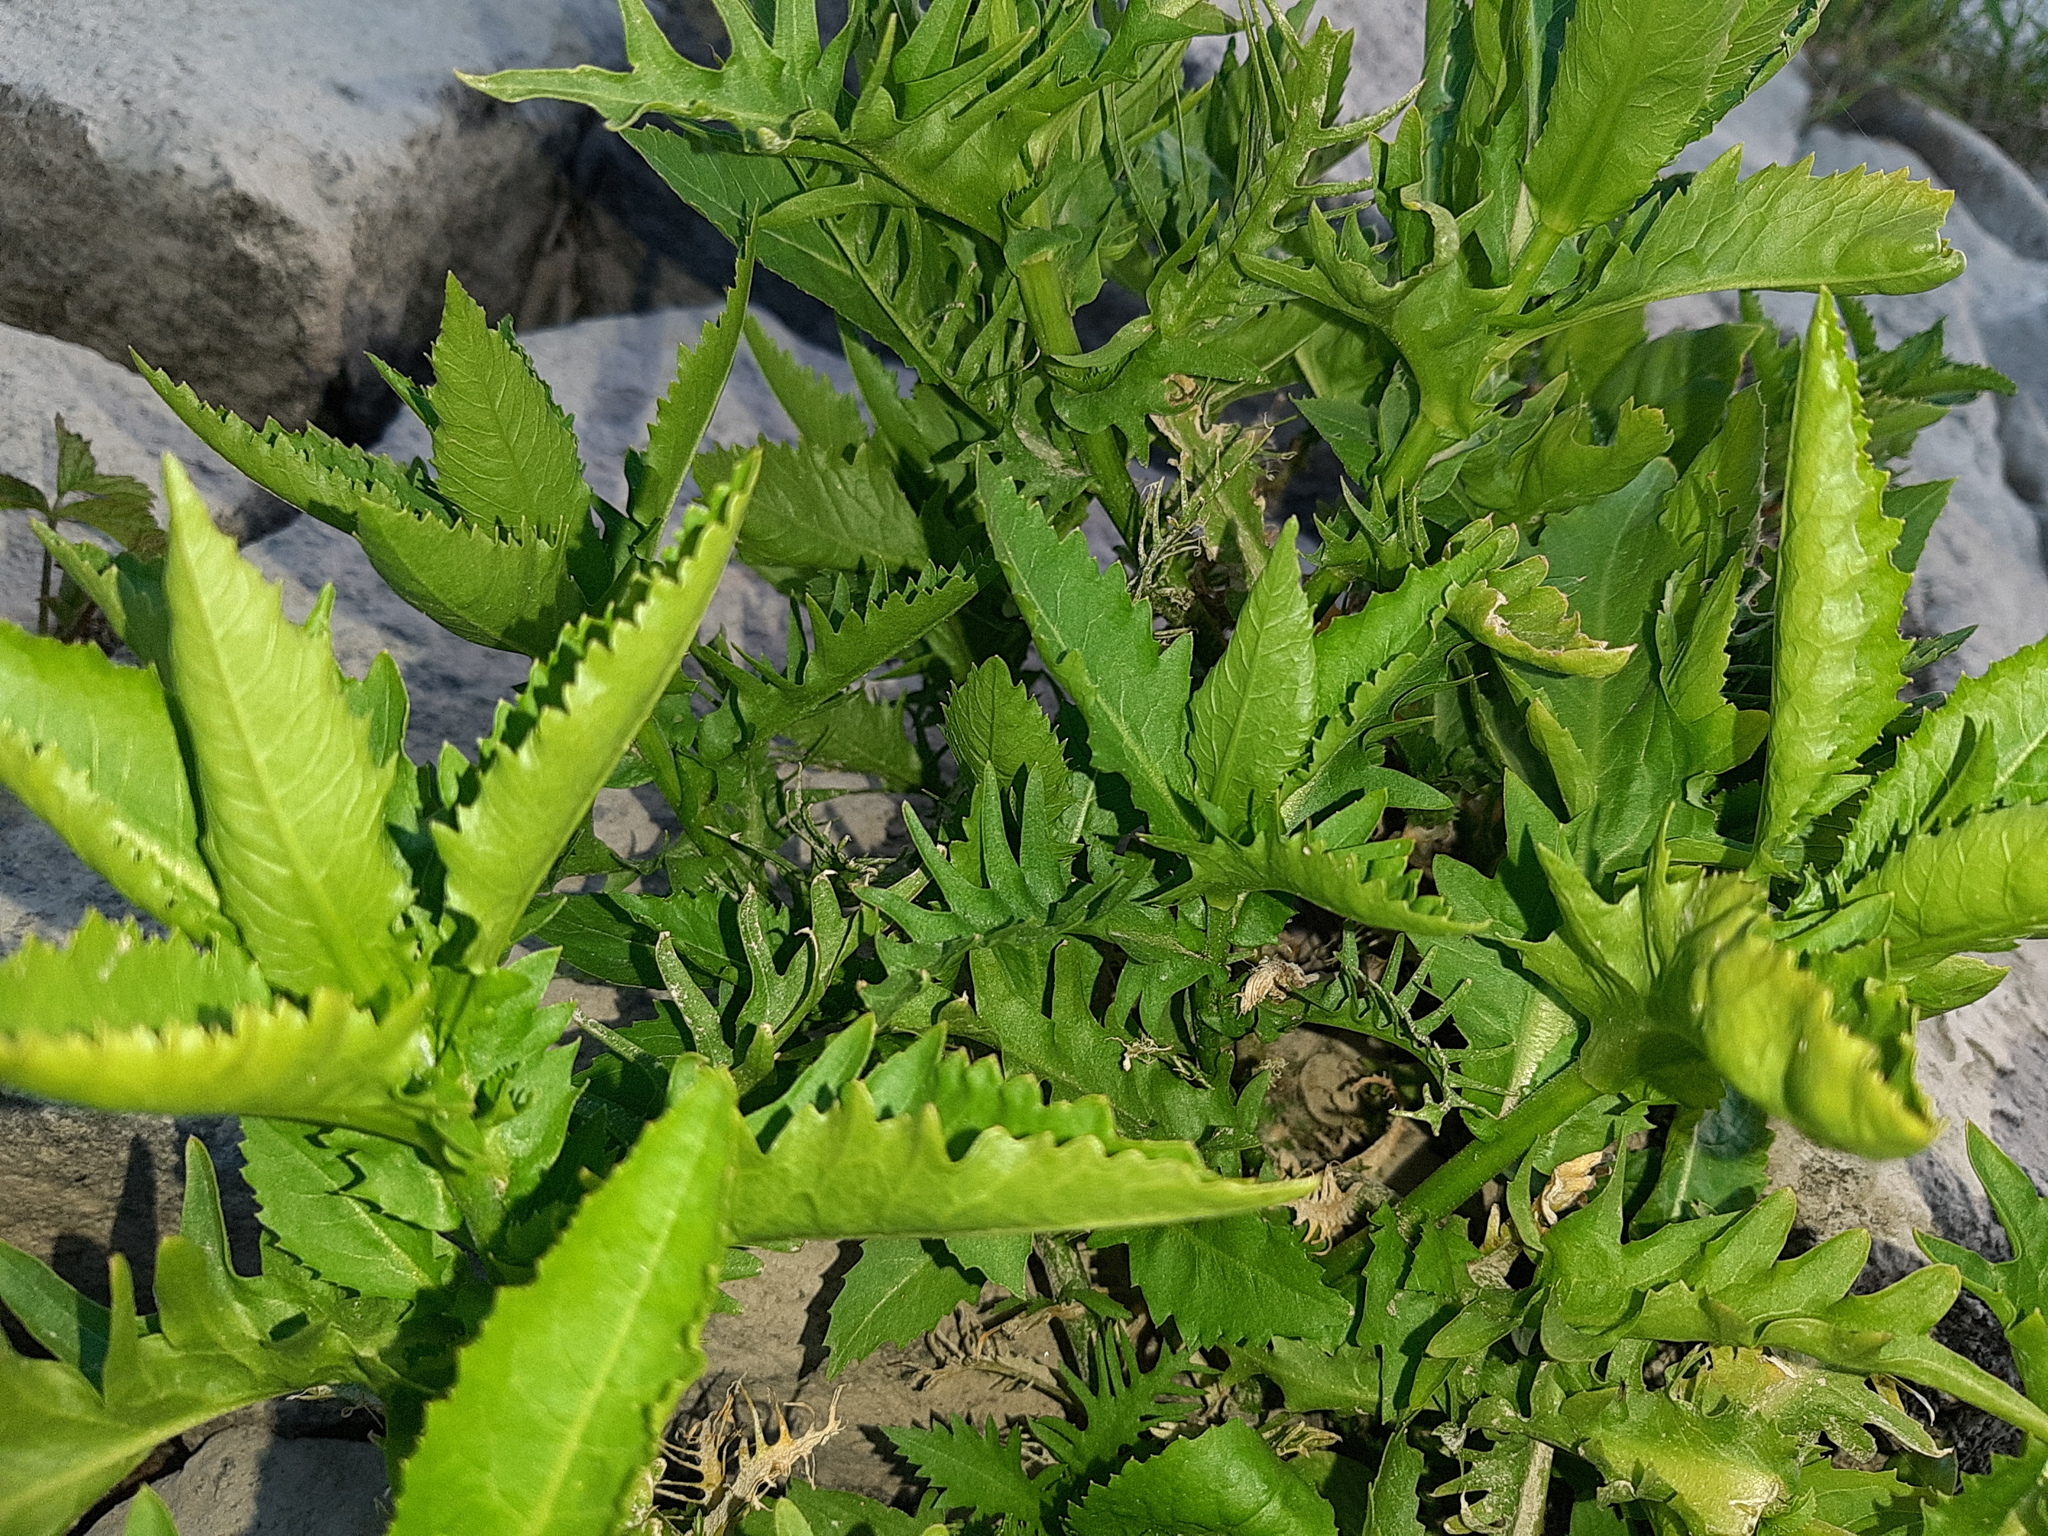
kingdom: Plantae
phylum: Tracheophyta
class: Magnoliopsida
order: Brassicales
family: Brassicaceae
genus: Rorippa
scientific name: Rorippa amphibia
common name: Great yellow-cress
